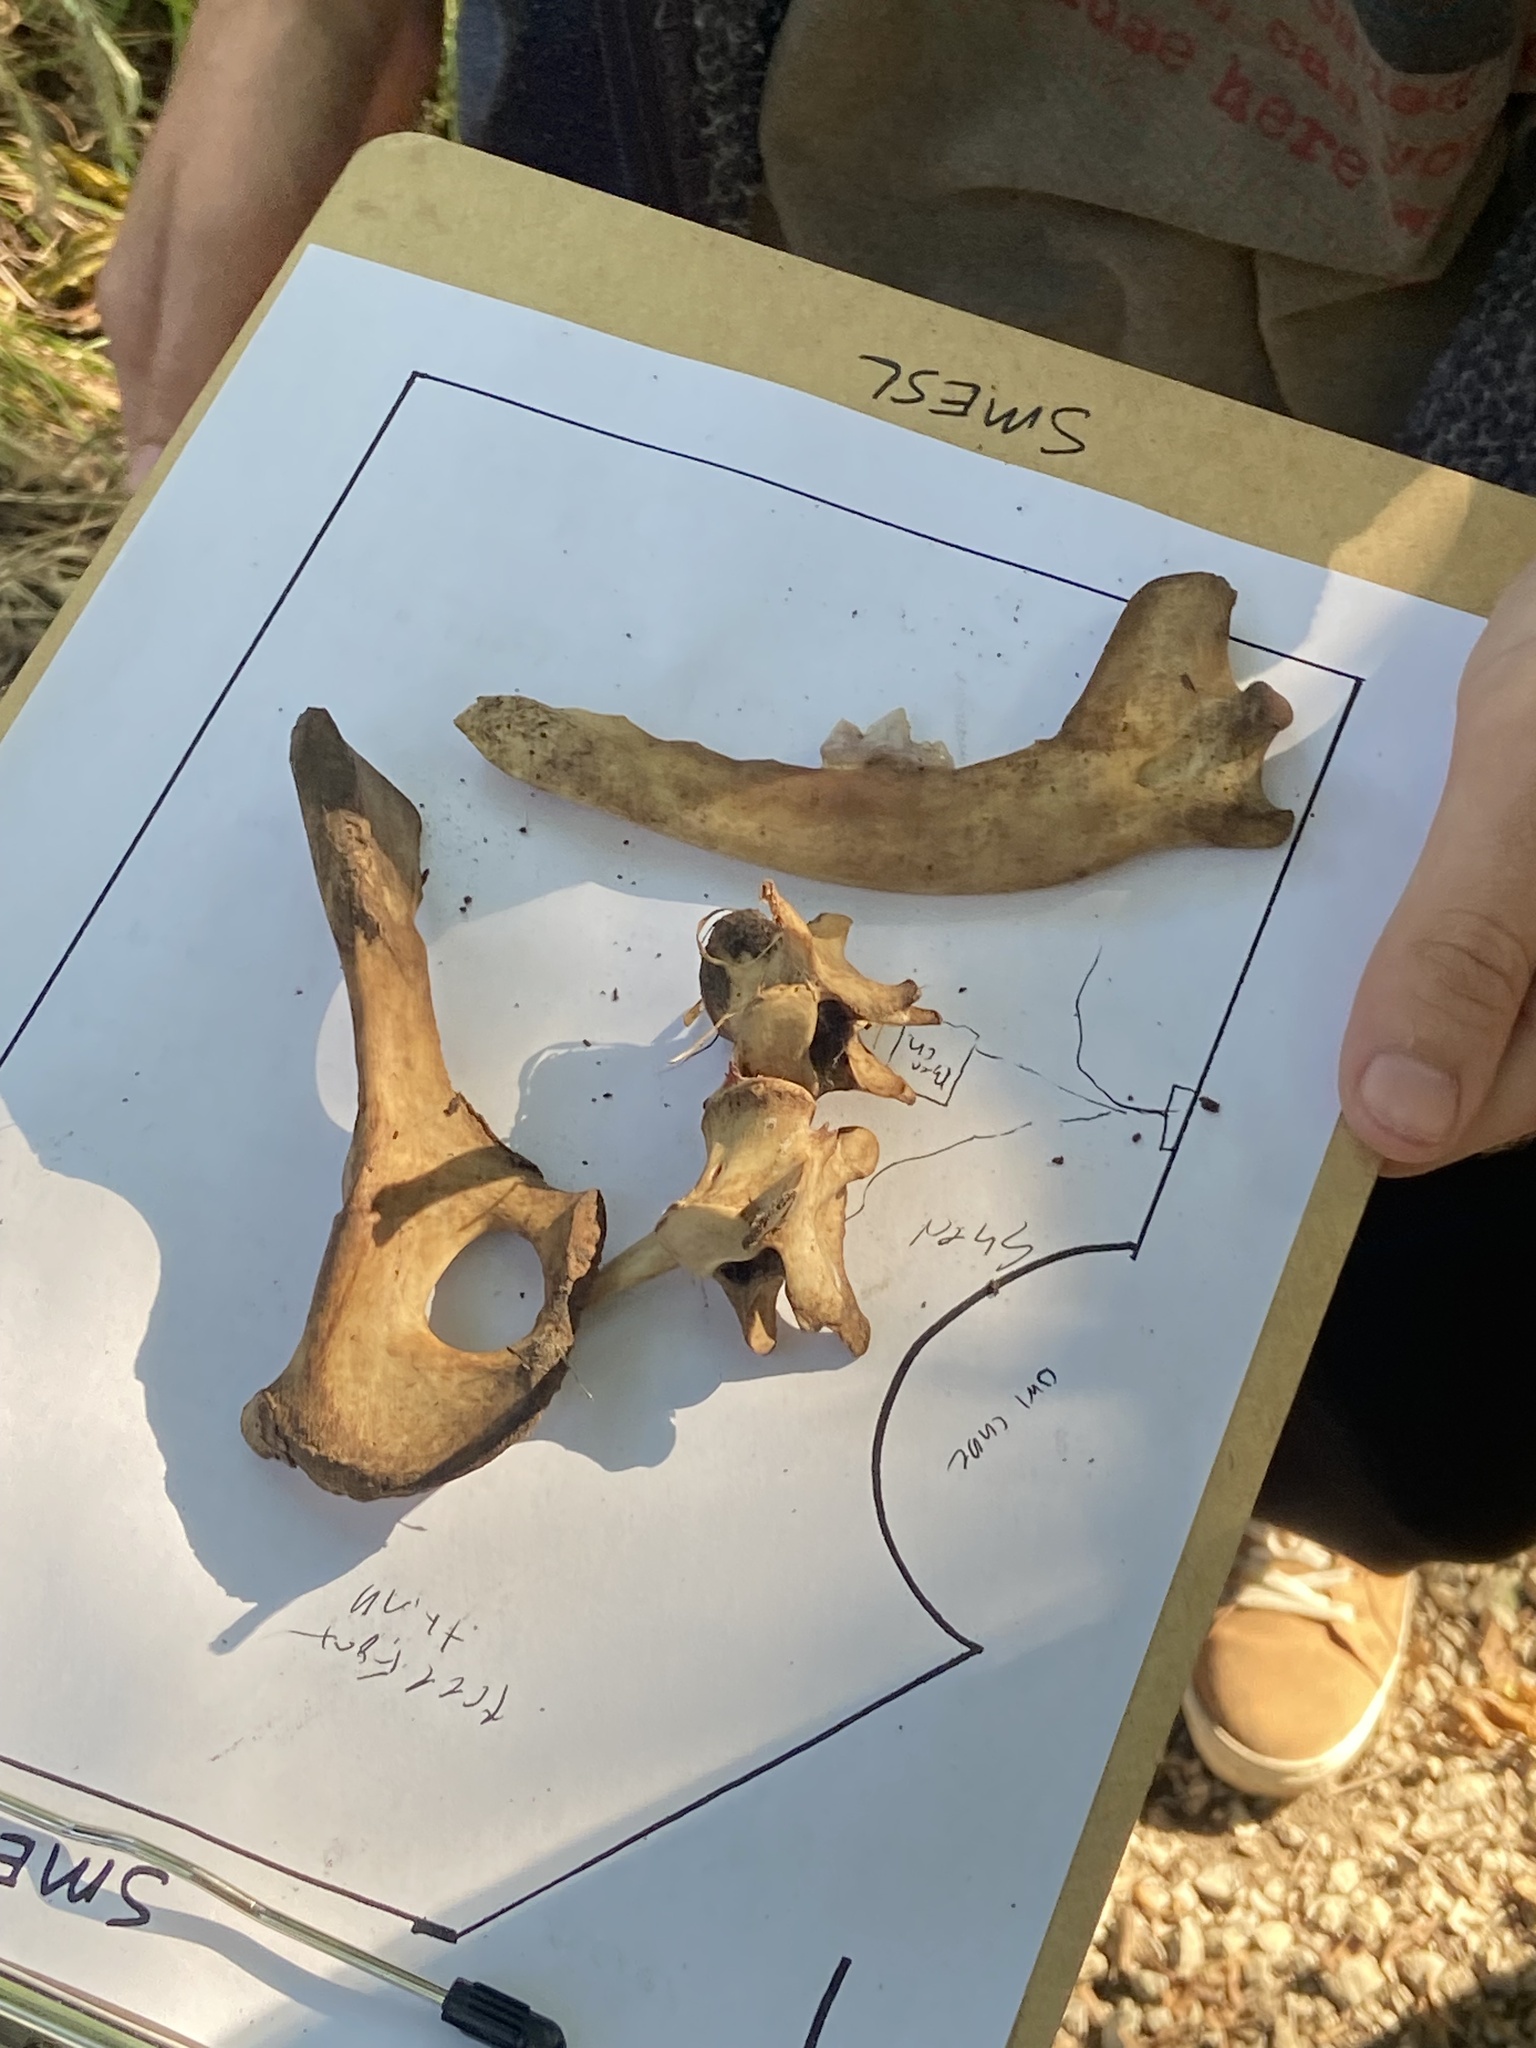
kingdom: Animalia
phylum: Chordata
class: Mammalia
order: Carnivora
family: Canidae
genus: Canis
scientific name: Canis latrans
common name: Coyote
